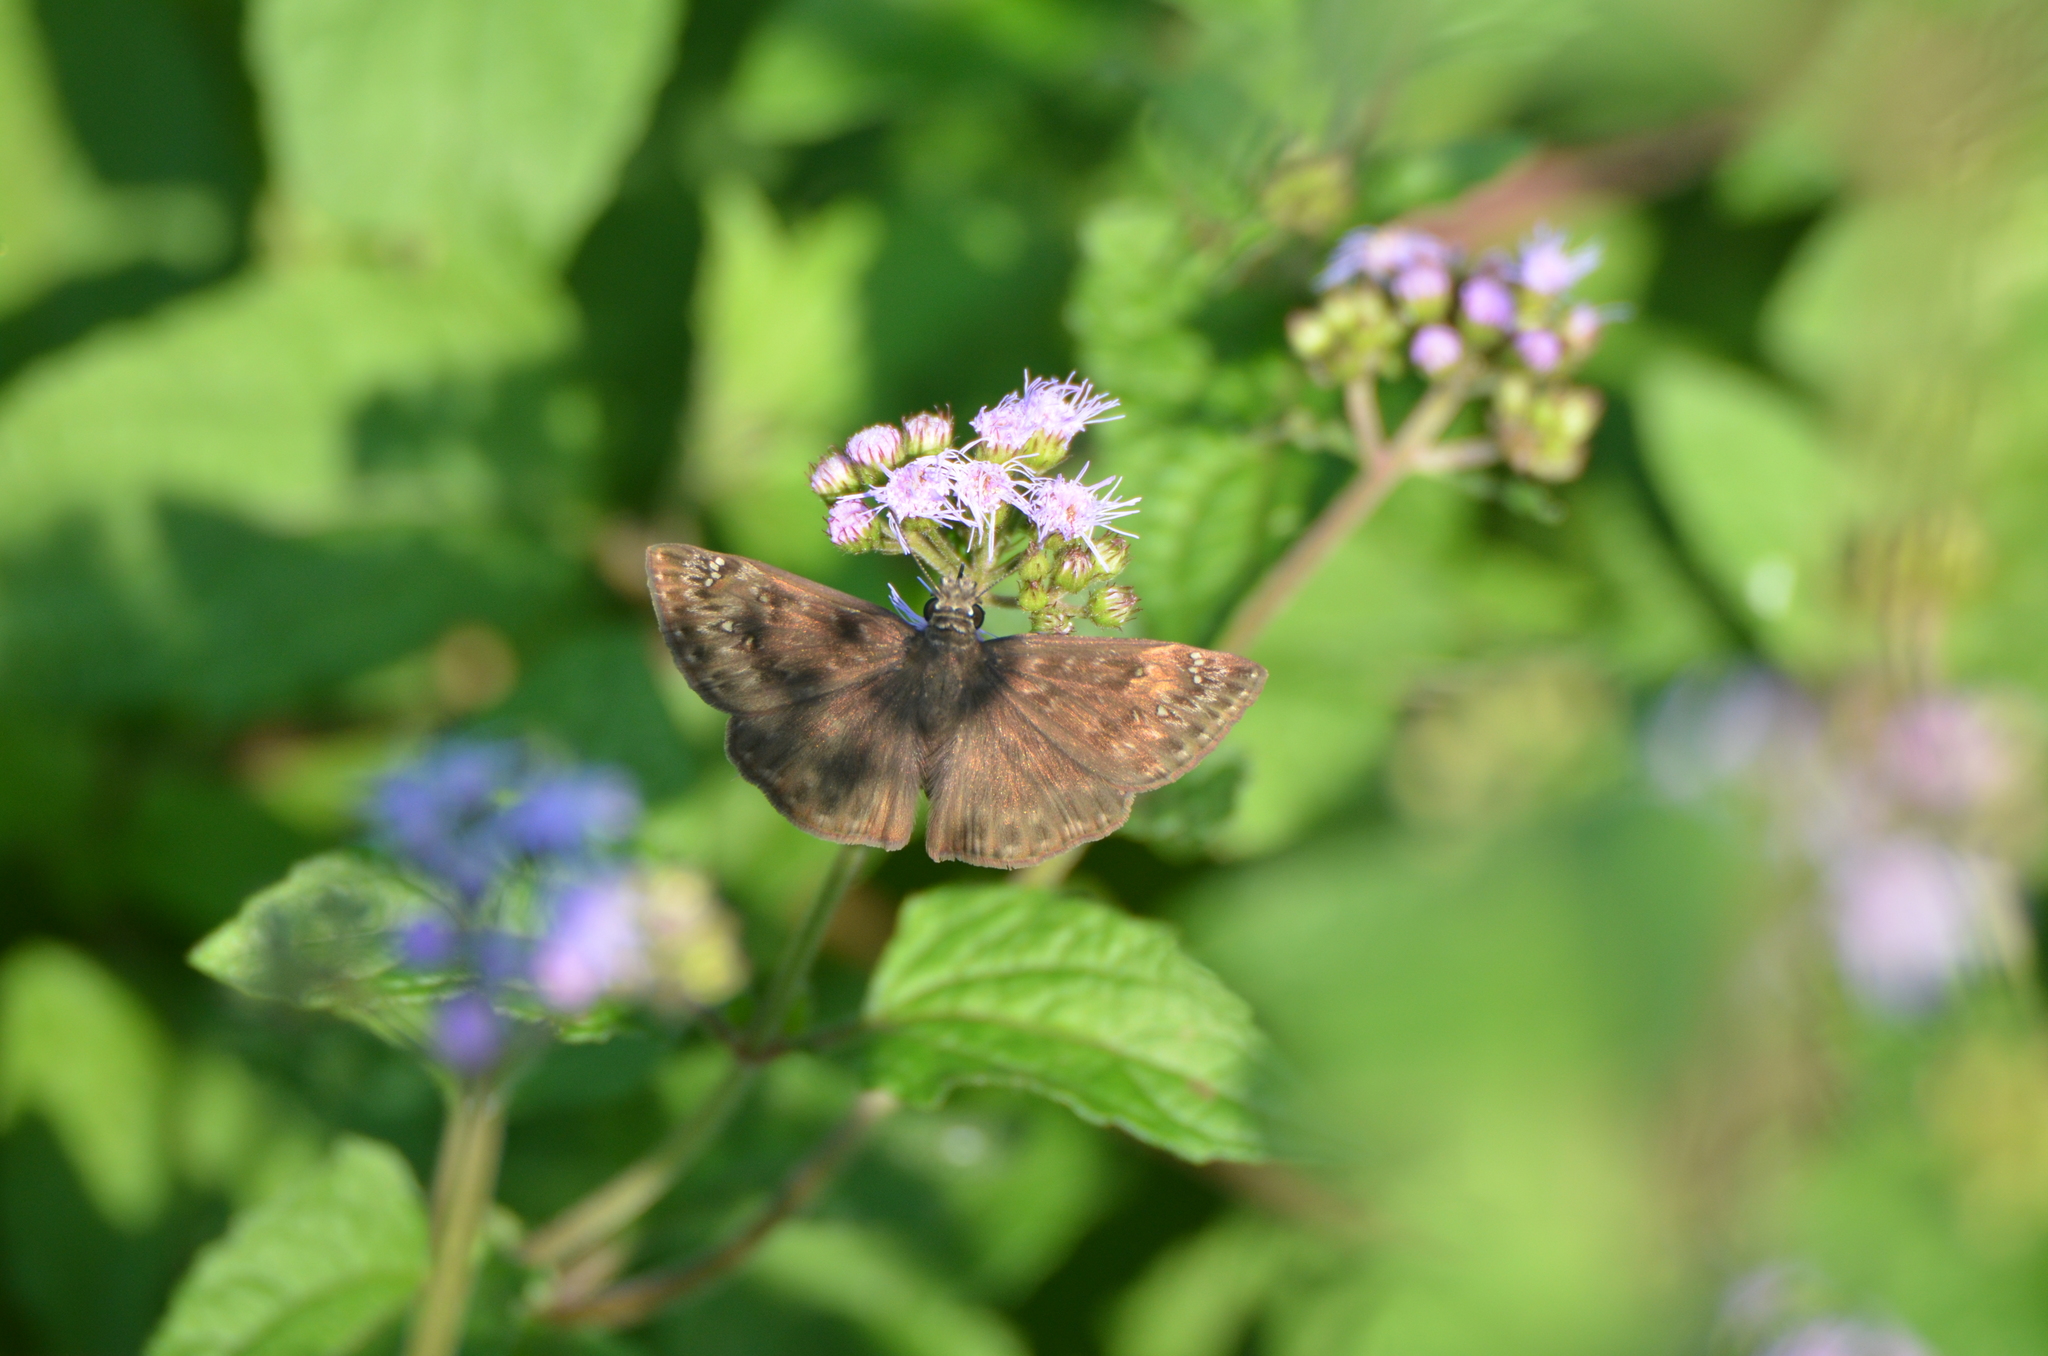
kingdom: Animalia
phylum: Arthropoda
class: Insecta
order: Lepidoptera
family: Hesperiidae
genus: Erynnis
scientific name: Erynnis horatius
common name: Horace's duskywing
